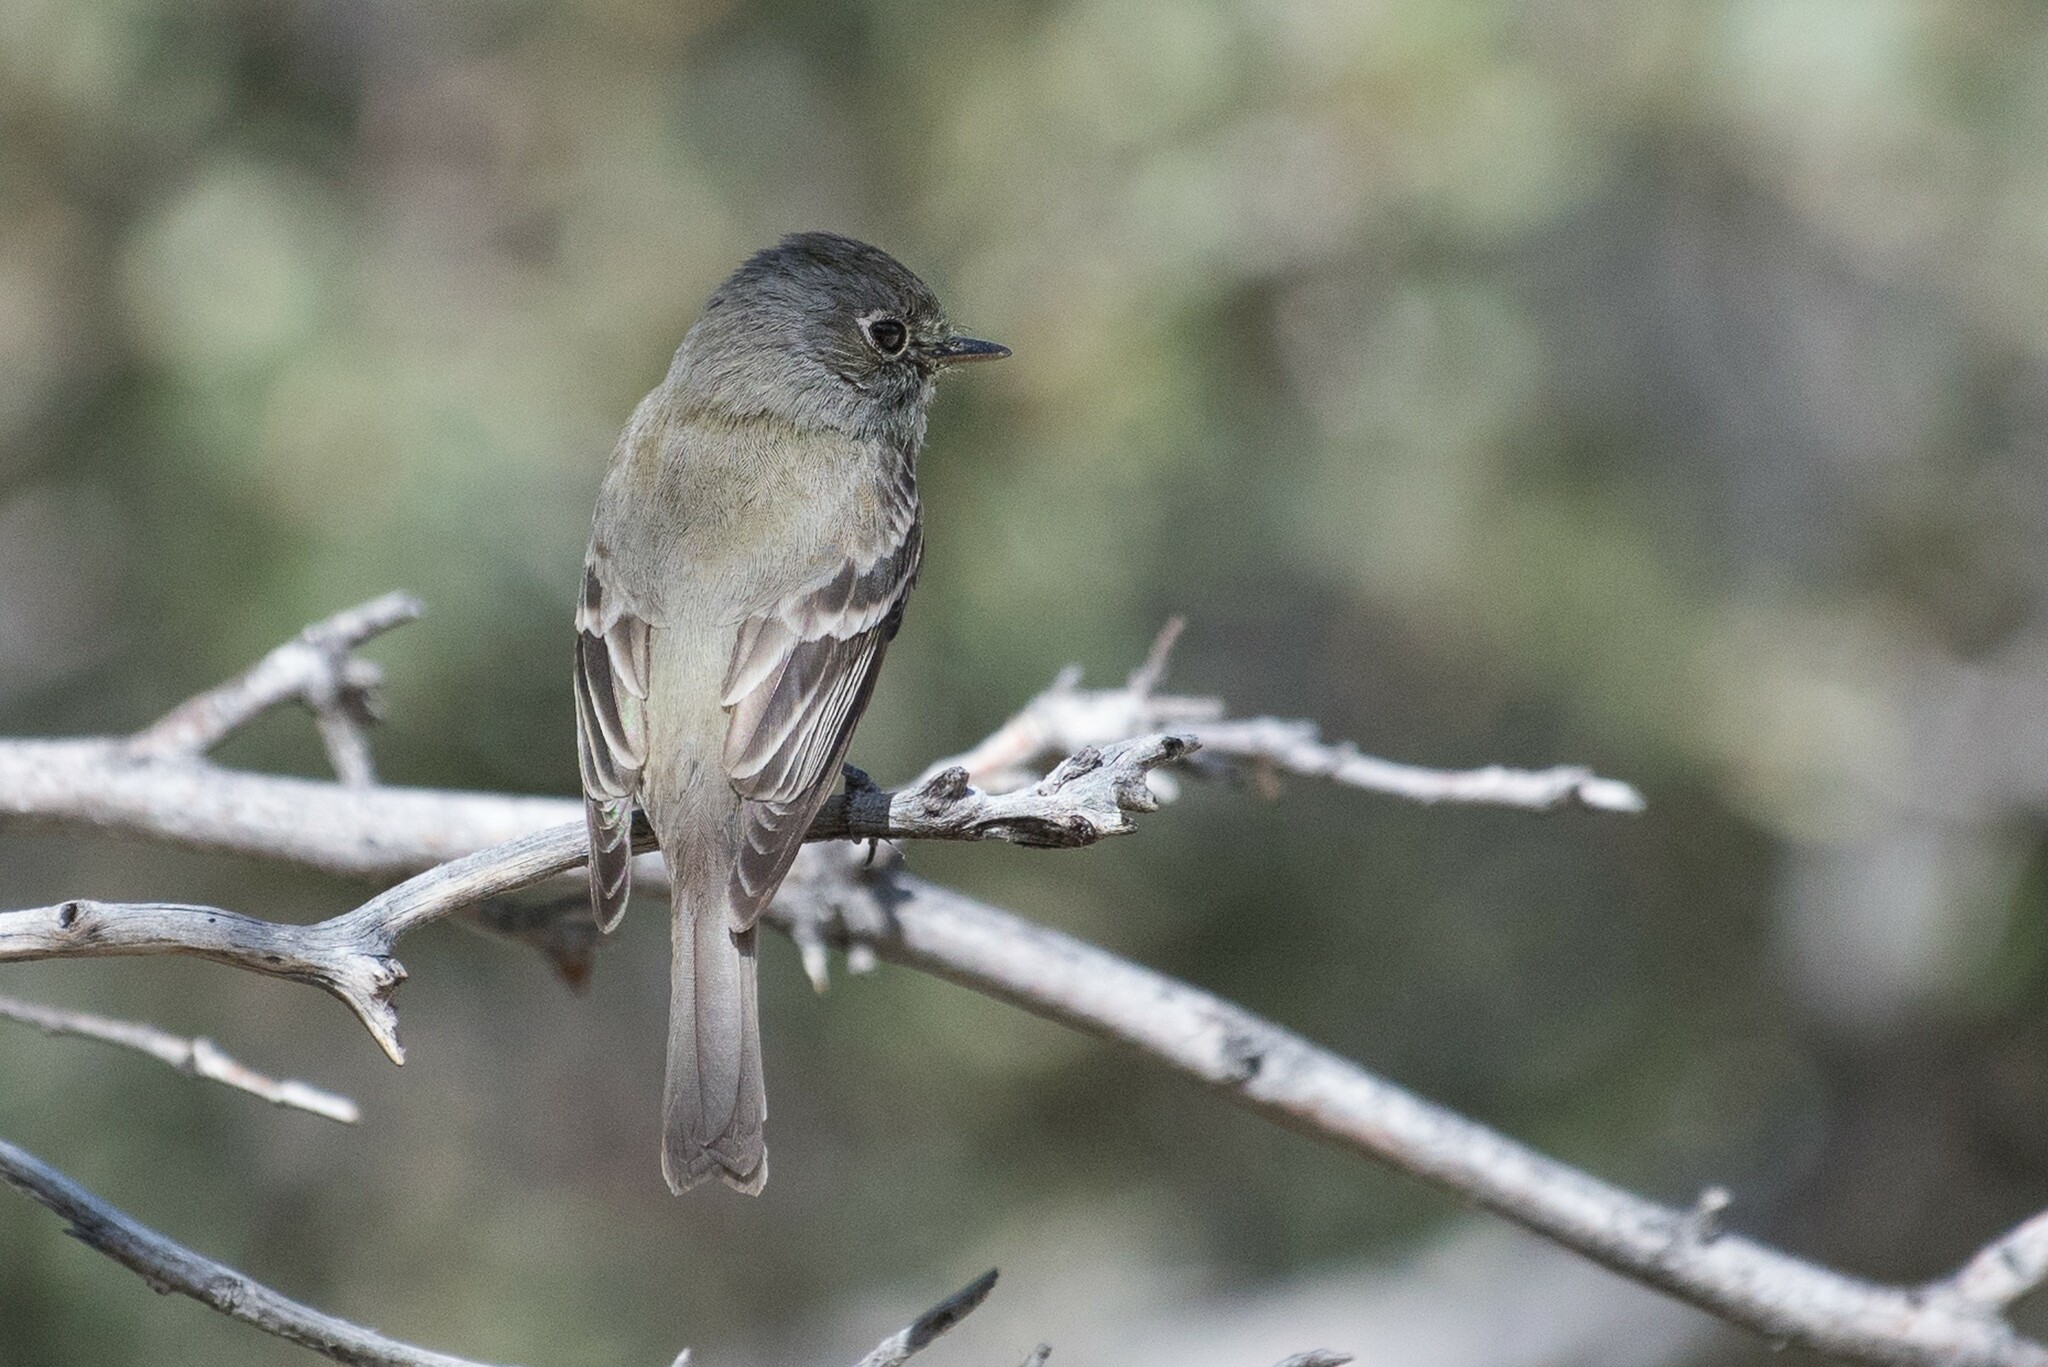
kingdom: Animalia
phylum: Chordata
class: Aves
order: Passeriformes
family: Tyrannidae
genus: Empidonax
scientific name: Empidonax hammondii
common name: Hammond's flycatcher
